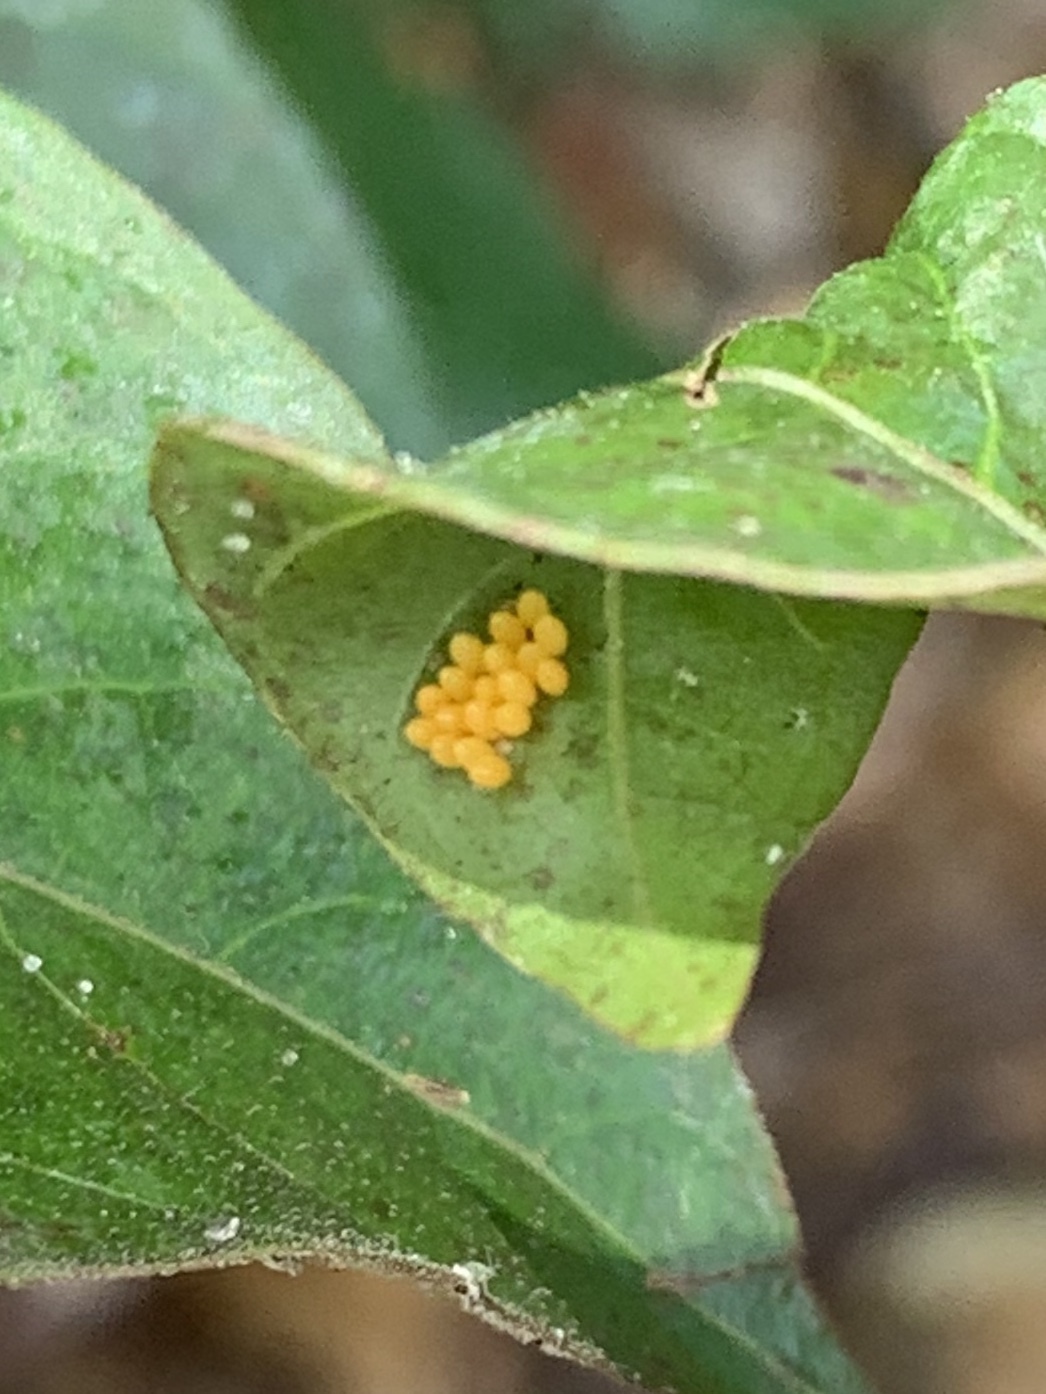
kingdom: Animalia
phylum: Arthropoda
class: Insecta
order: Coleoptera
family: Coccinellidae
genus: Harmonia
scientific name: Harmonia axyridis
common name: Harlequin ladybird
